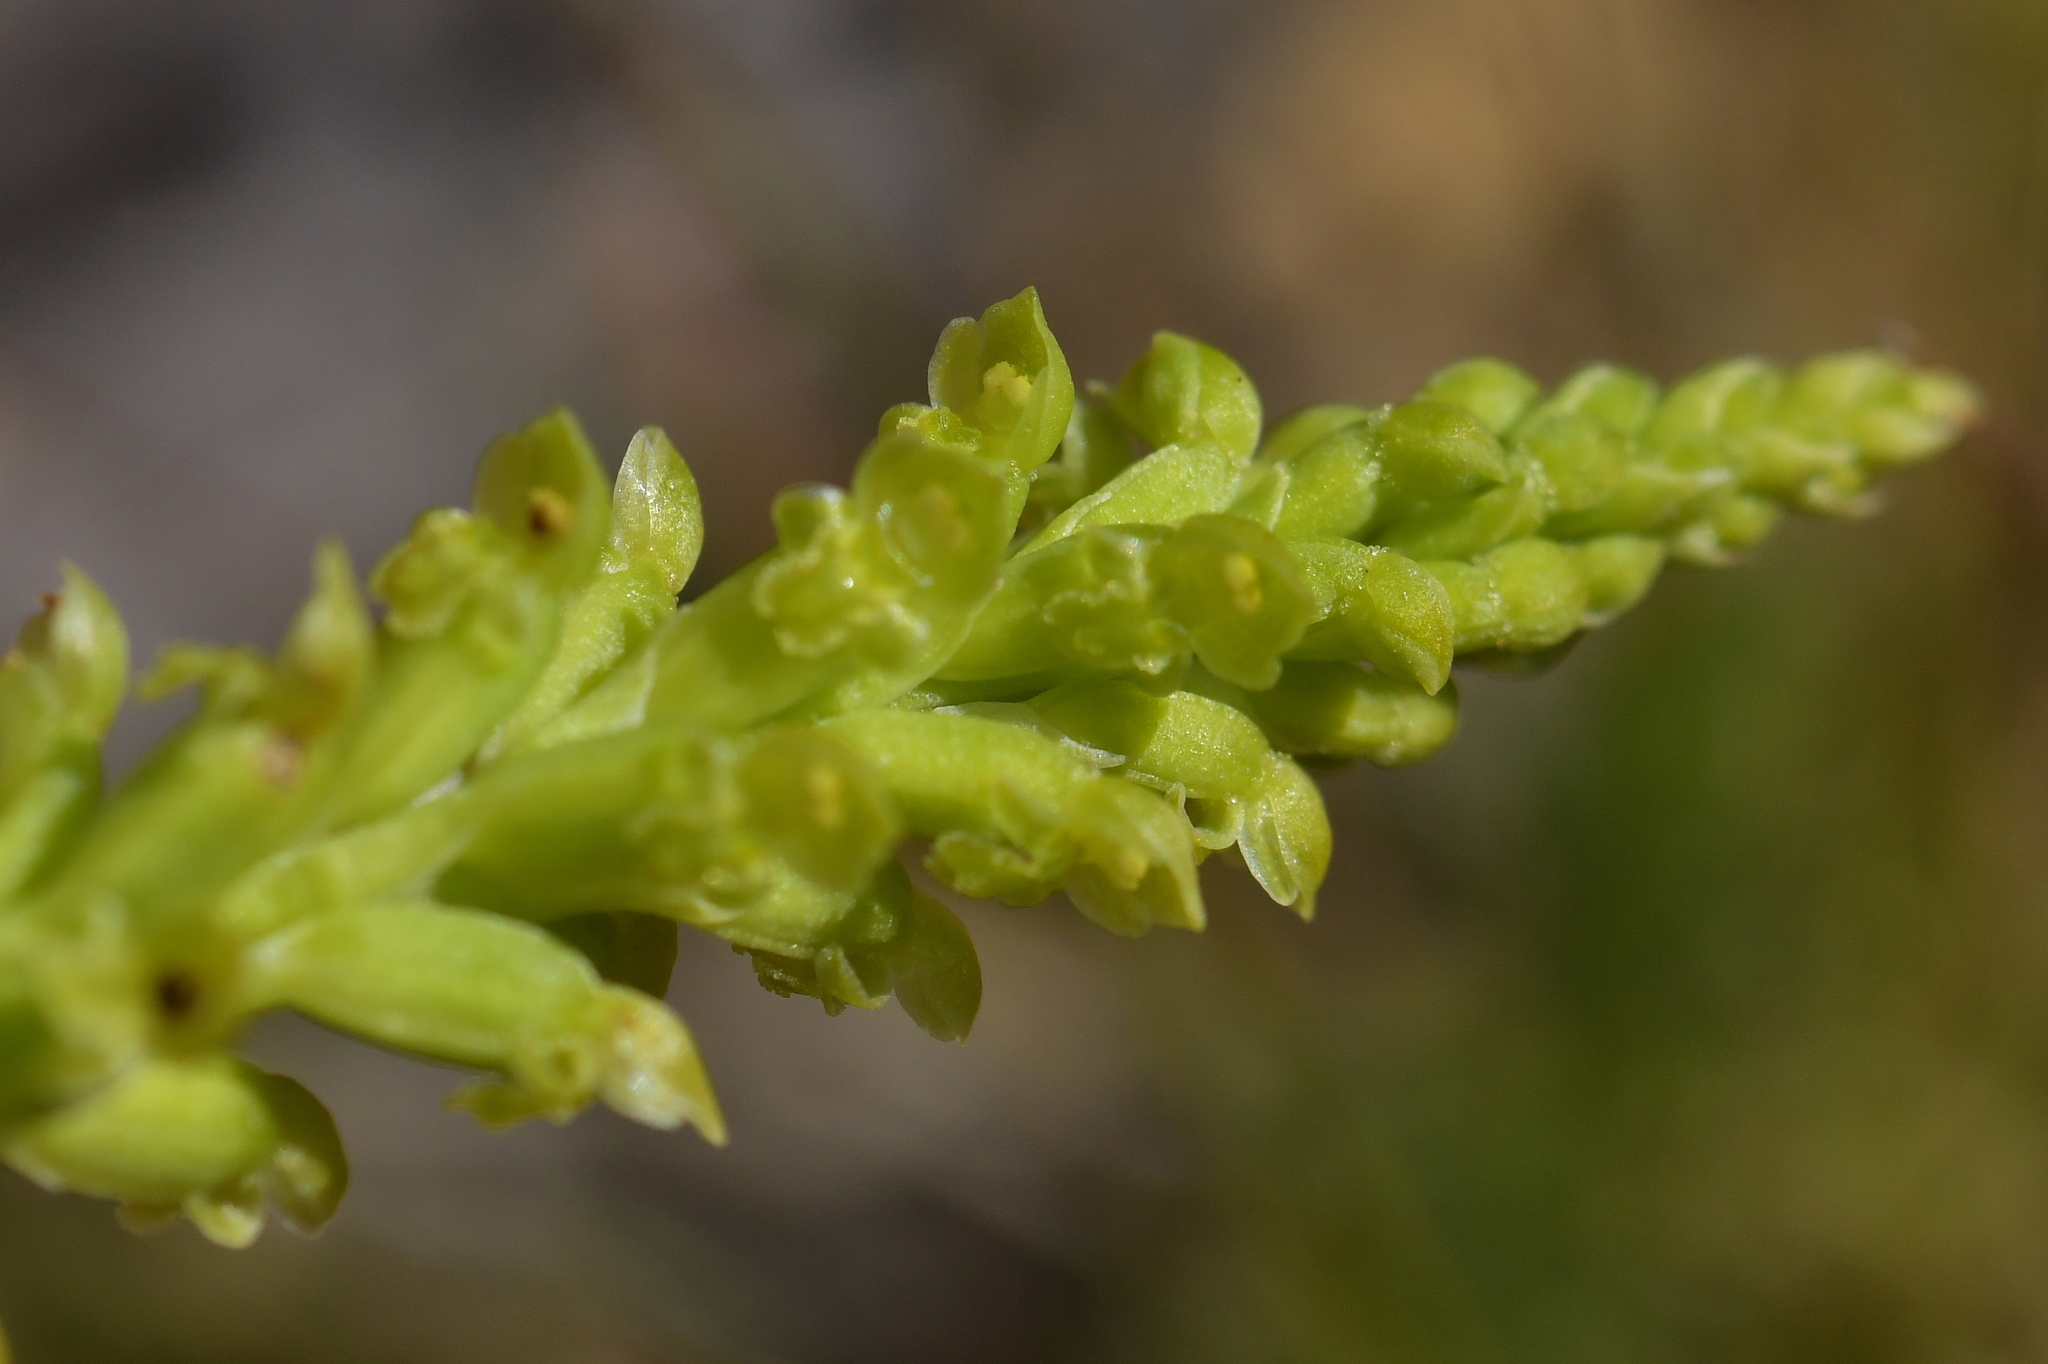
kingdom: Plantae
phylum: Tracheophyta
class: Liliopsida
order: Asparagales
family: Orchidaceae
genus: Microtis
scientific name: Microtis unifolia
